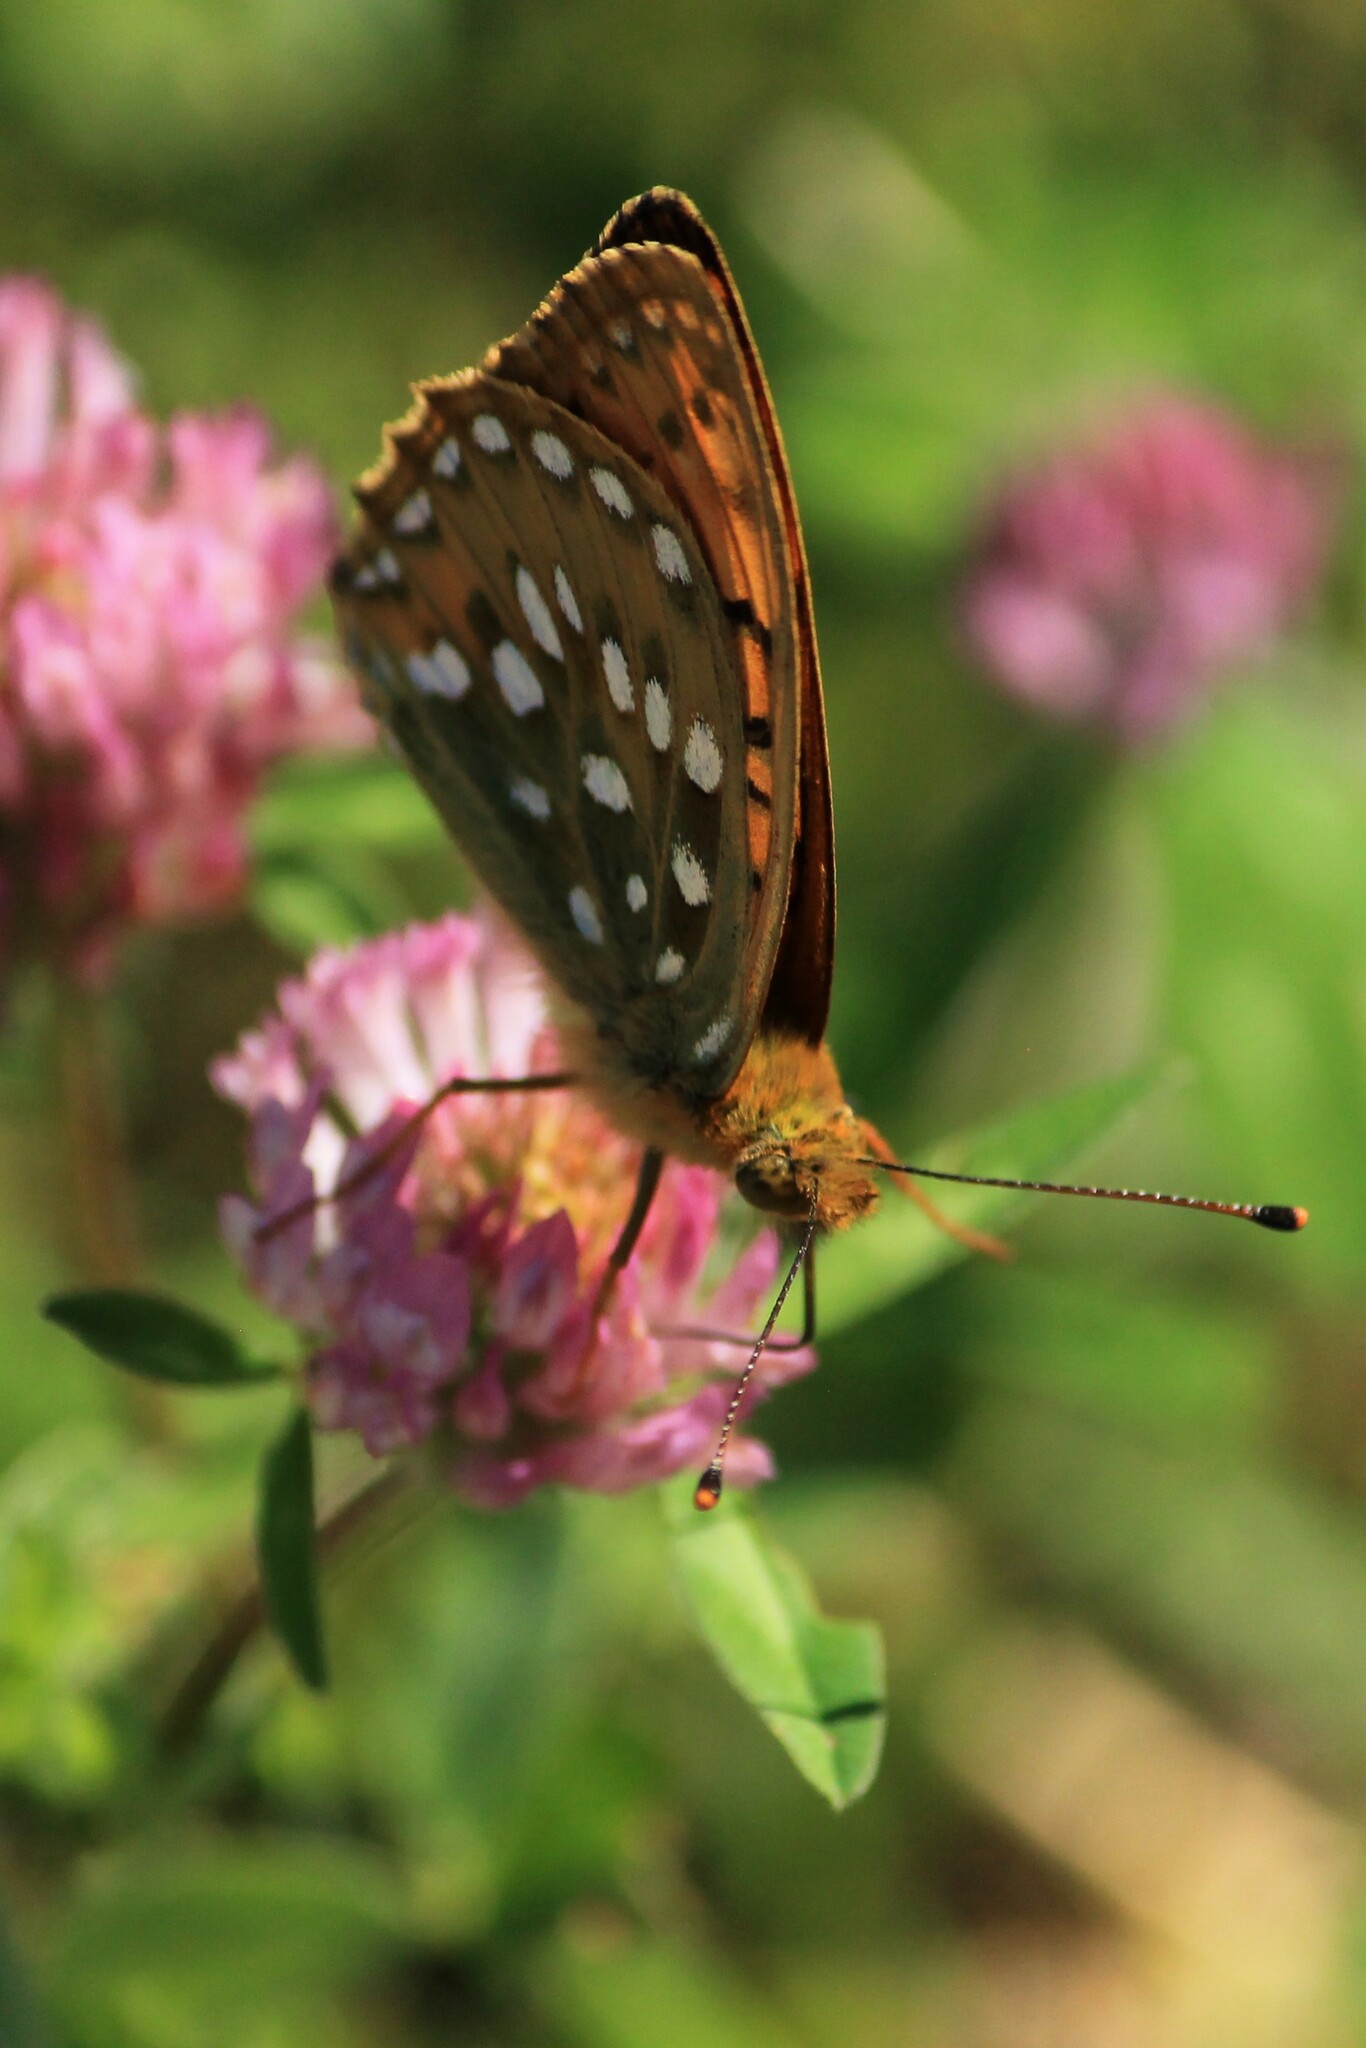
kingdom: Animalia
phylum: Arthropoda
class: Insecta
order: Lepidoptera
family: Nymphalidae
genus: Speyeria
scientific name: Speyeria aglaja
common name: Dark green fritillary
